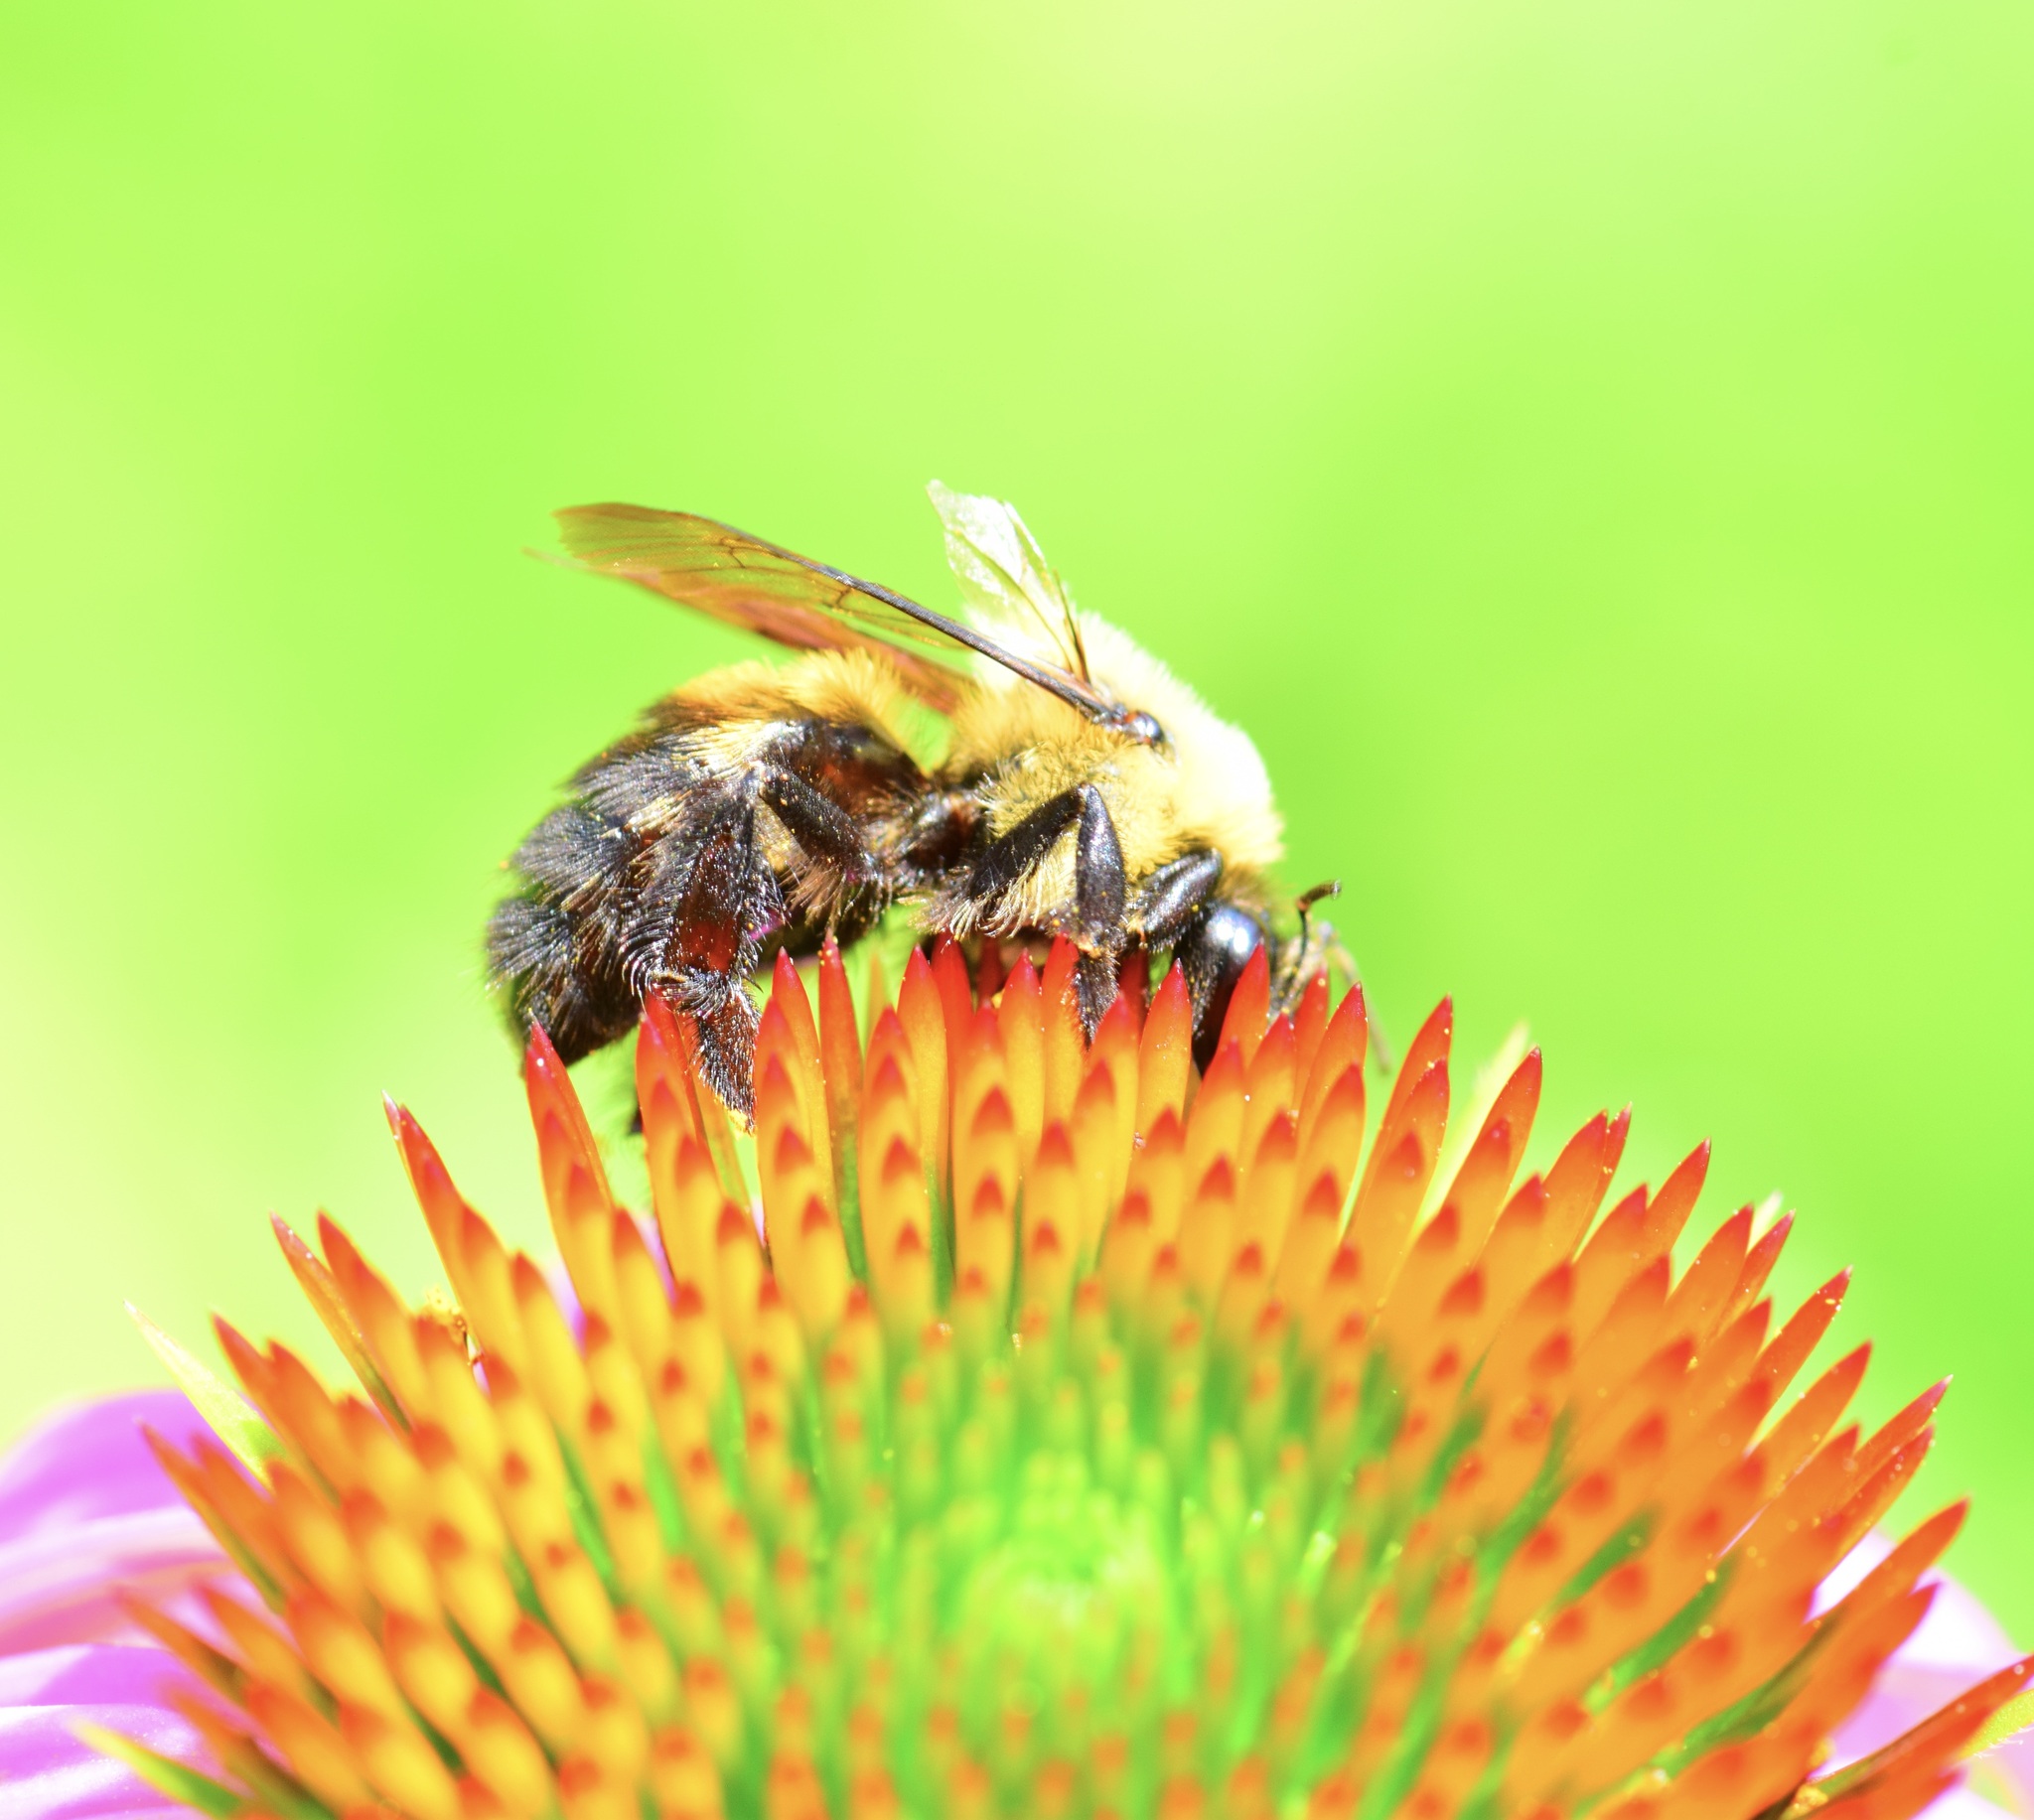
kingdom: Animalia
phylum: Arthropoda
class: Insecta
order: Hymenoptera
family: Apidae
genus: Bombus
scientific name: Bombus griseocollis
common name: Brown-belted bumble bee
